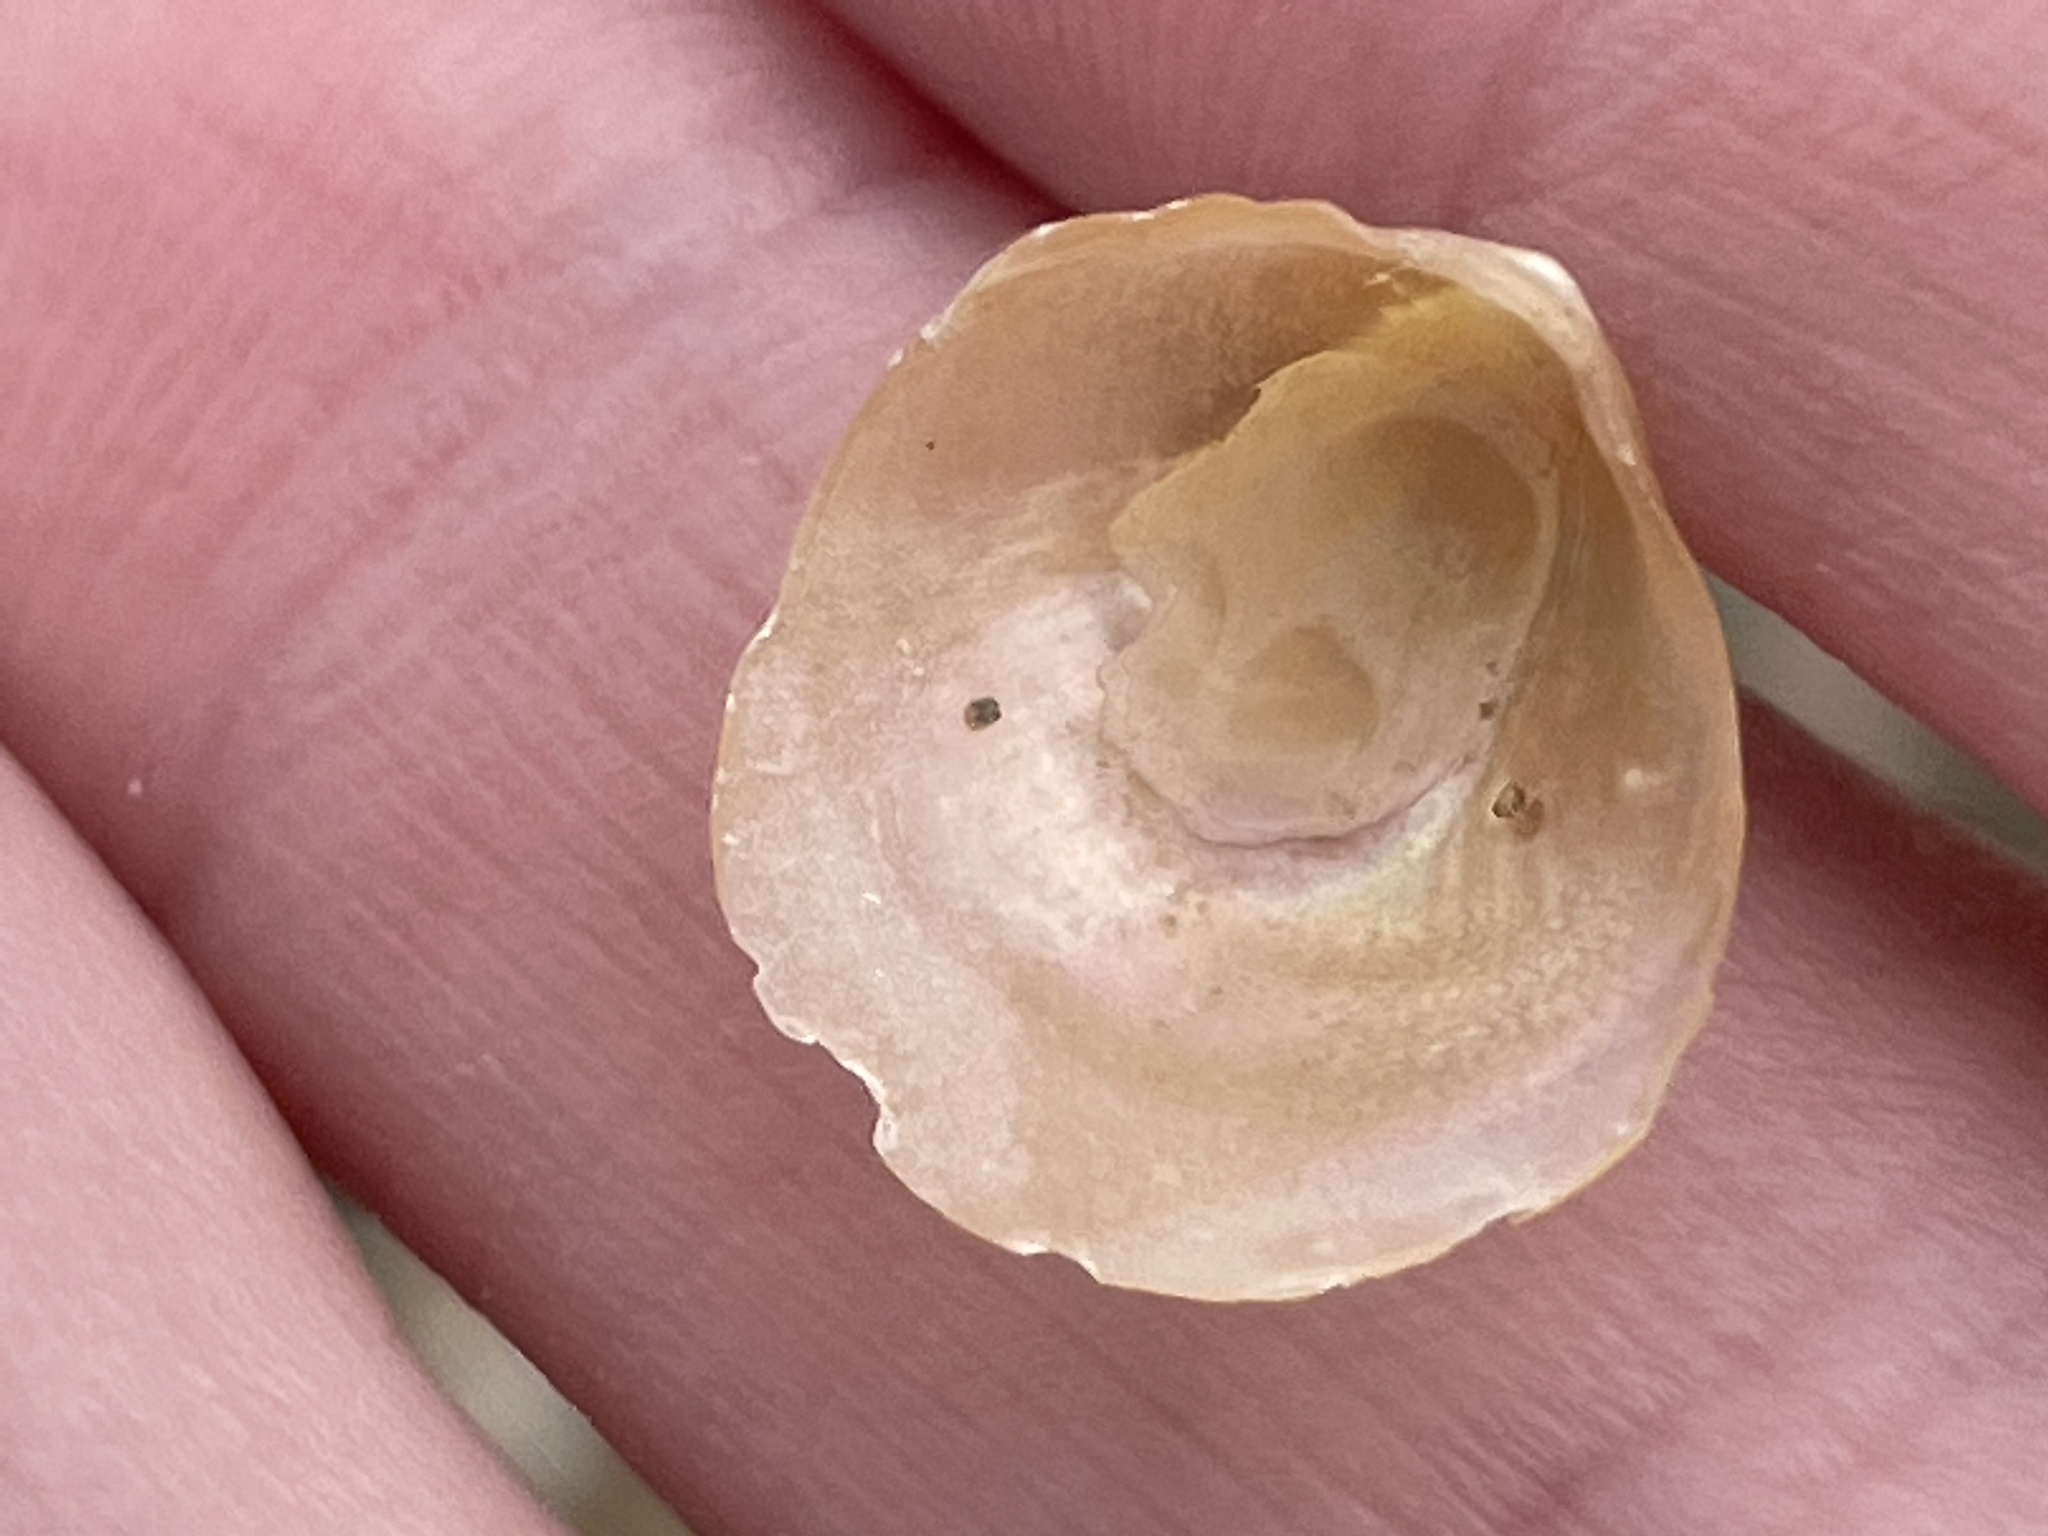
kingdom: Animalia
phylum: Mollusca
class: Bivalvia
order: Pectinida
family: Anomiidae
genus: Anomia
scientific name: Anomia simplex
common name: Common jingle shell
